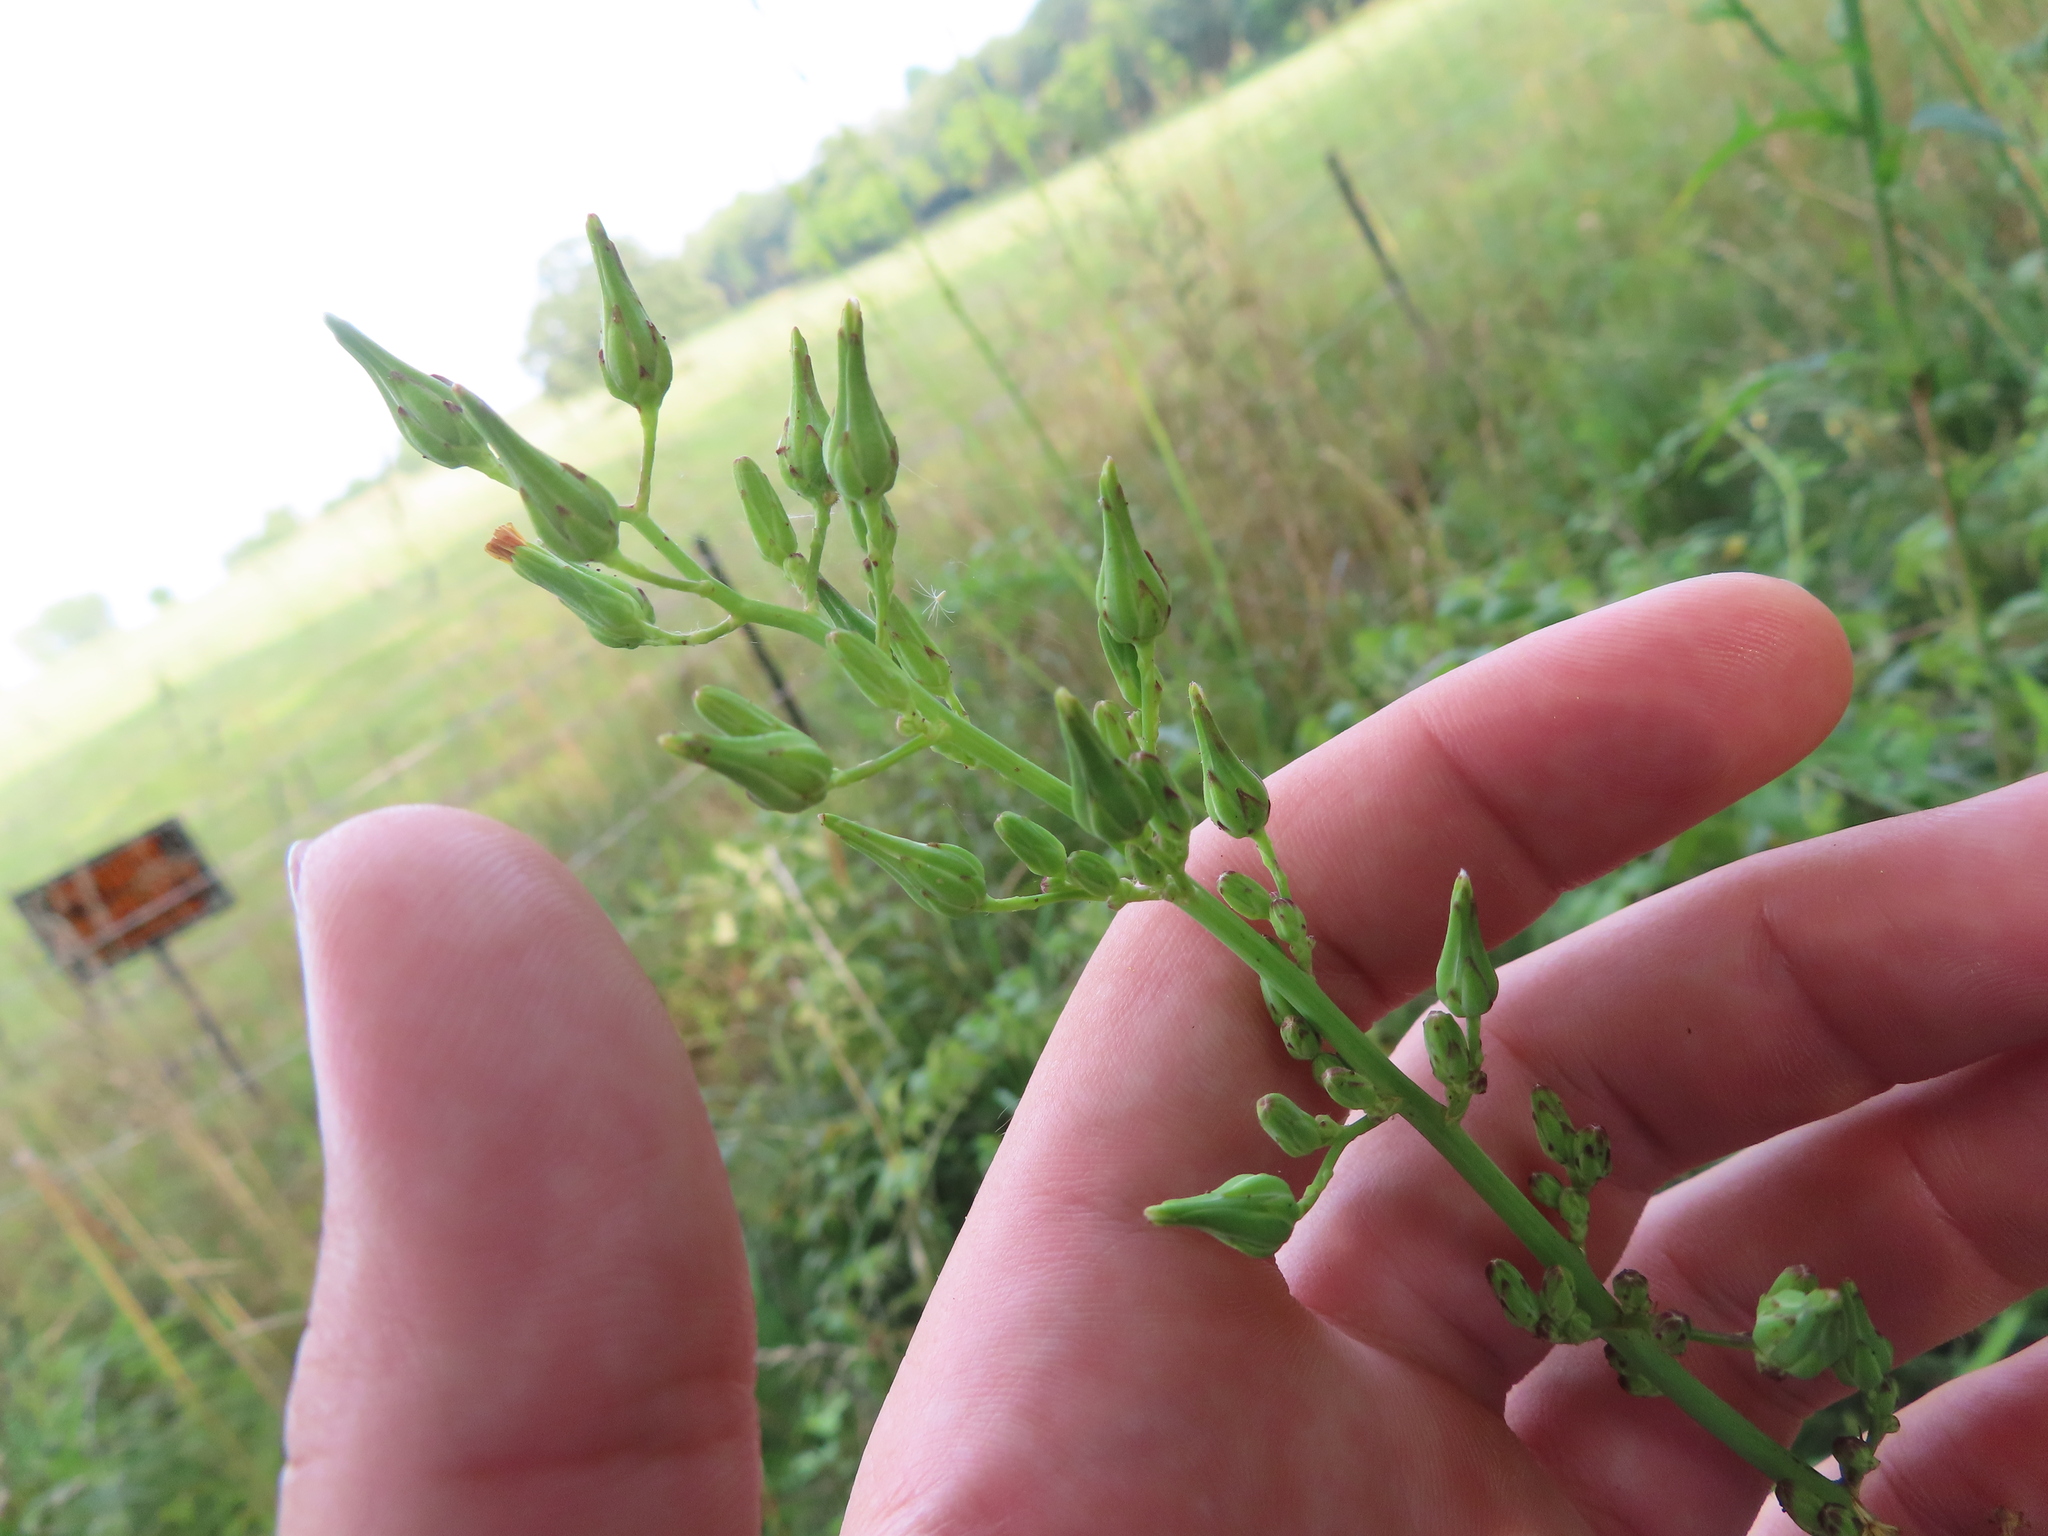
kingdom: Plantae
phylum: Tracheophyta
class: Magnoliopsida
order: Asterales
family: Asteraceae
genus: Lactuca
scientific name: Lactuca canadensis
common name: Canada lettuce
